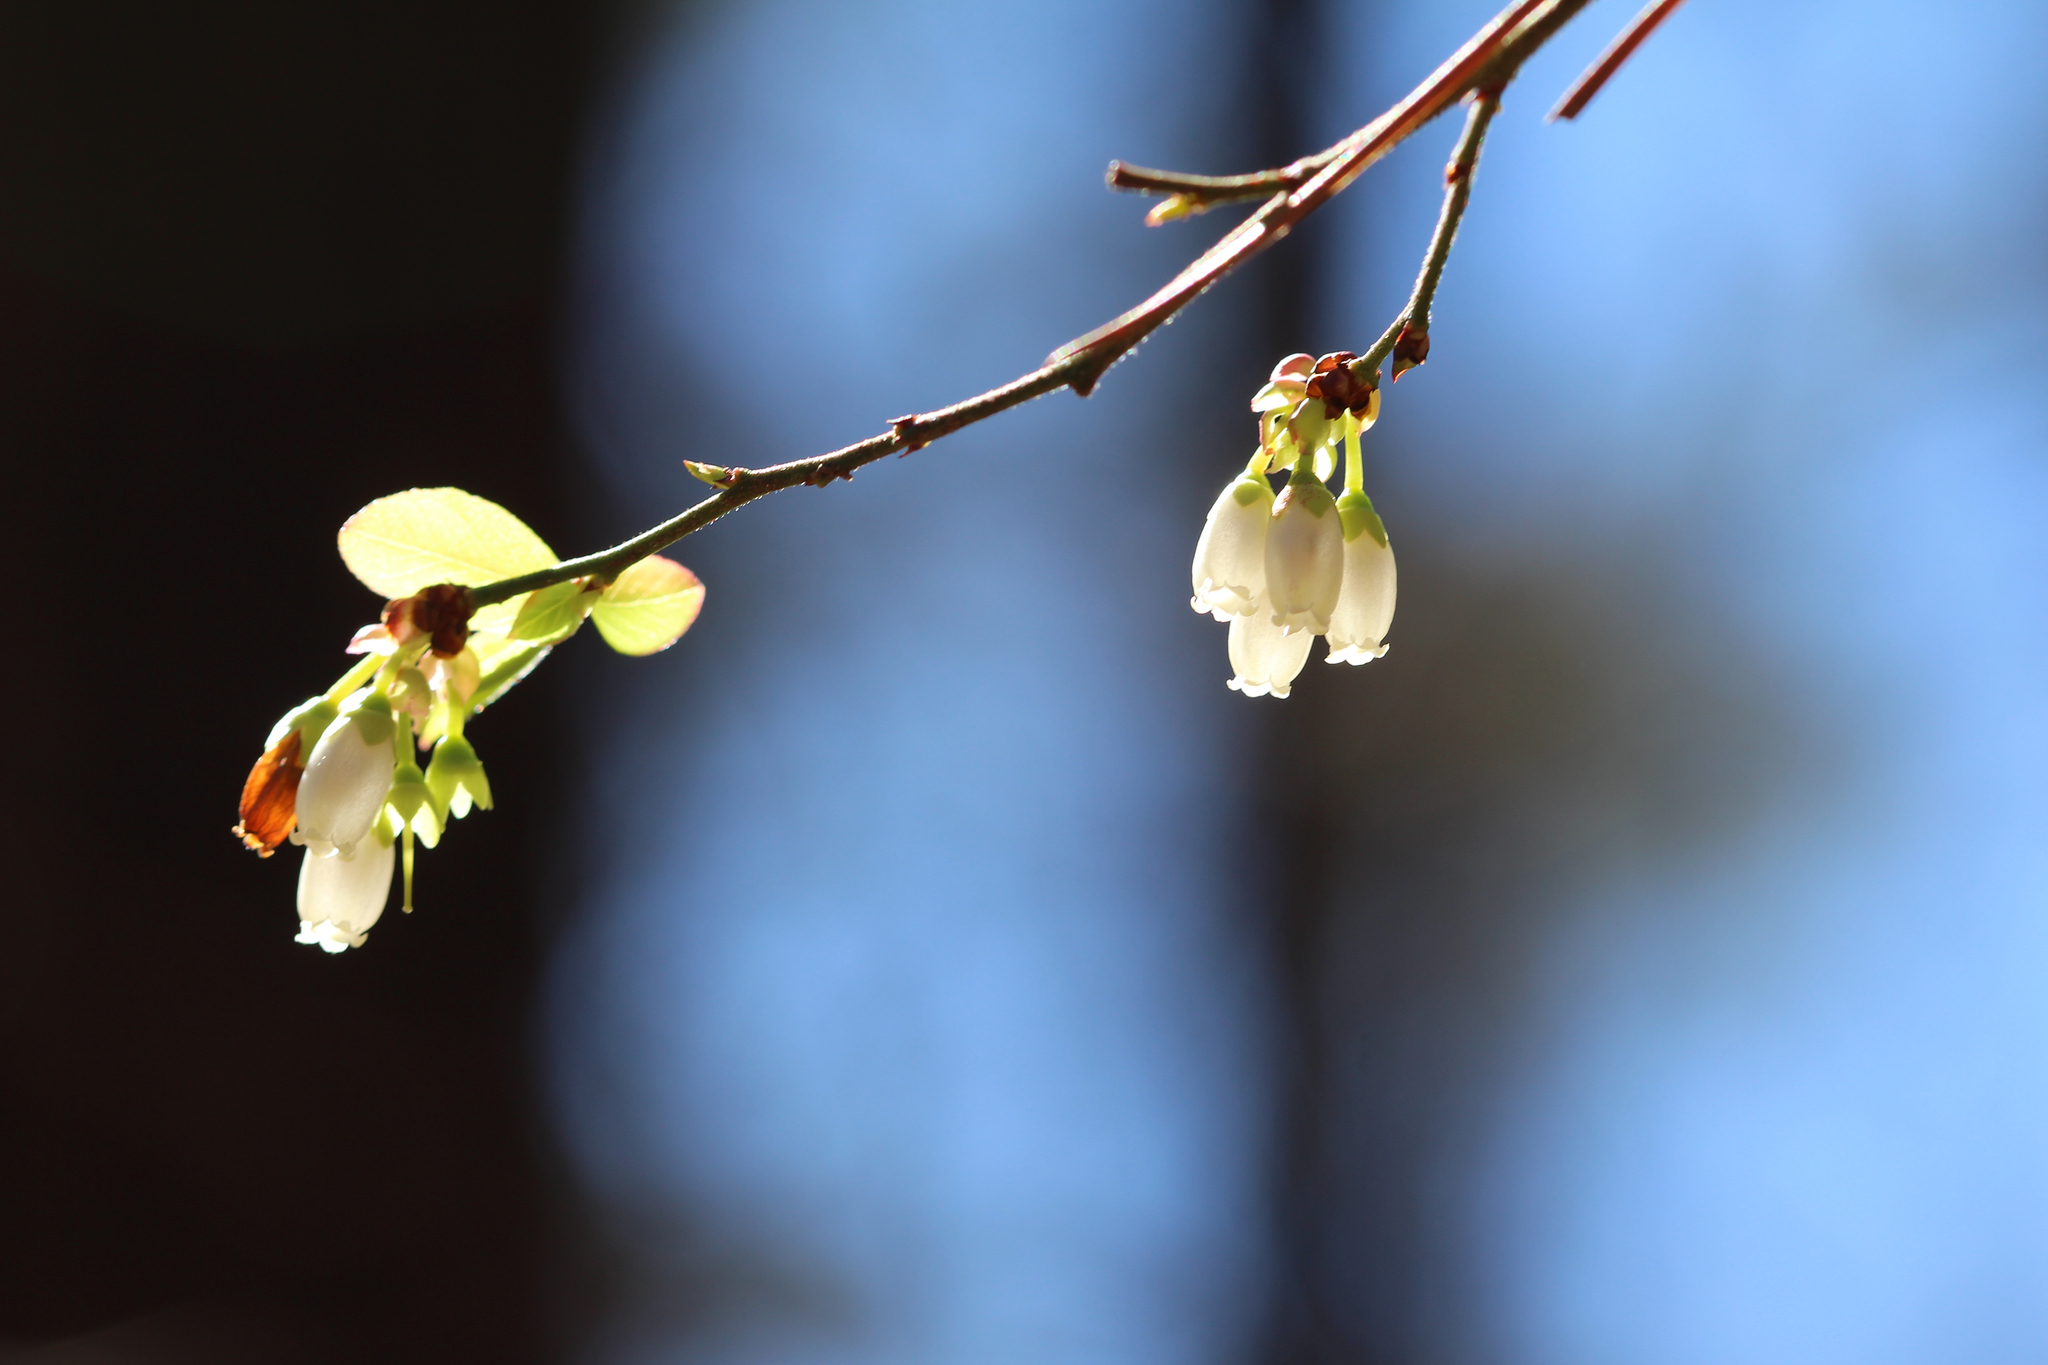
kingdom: Plantae
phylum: Tracheophyta
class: Magnoliopsida
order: Ericales
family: Ericaceae
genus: Vaccinium
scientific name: Vaccinium corymbosum
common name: Blueberry
